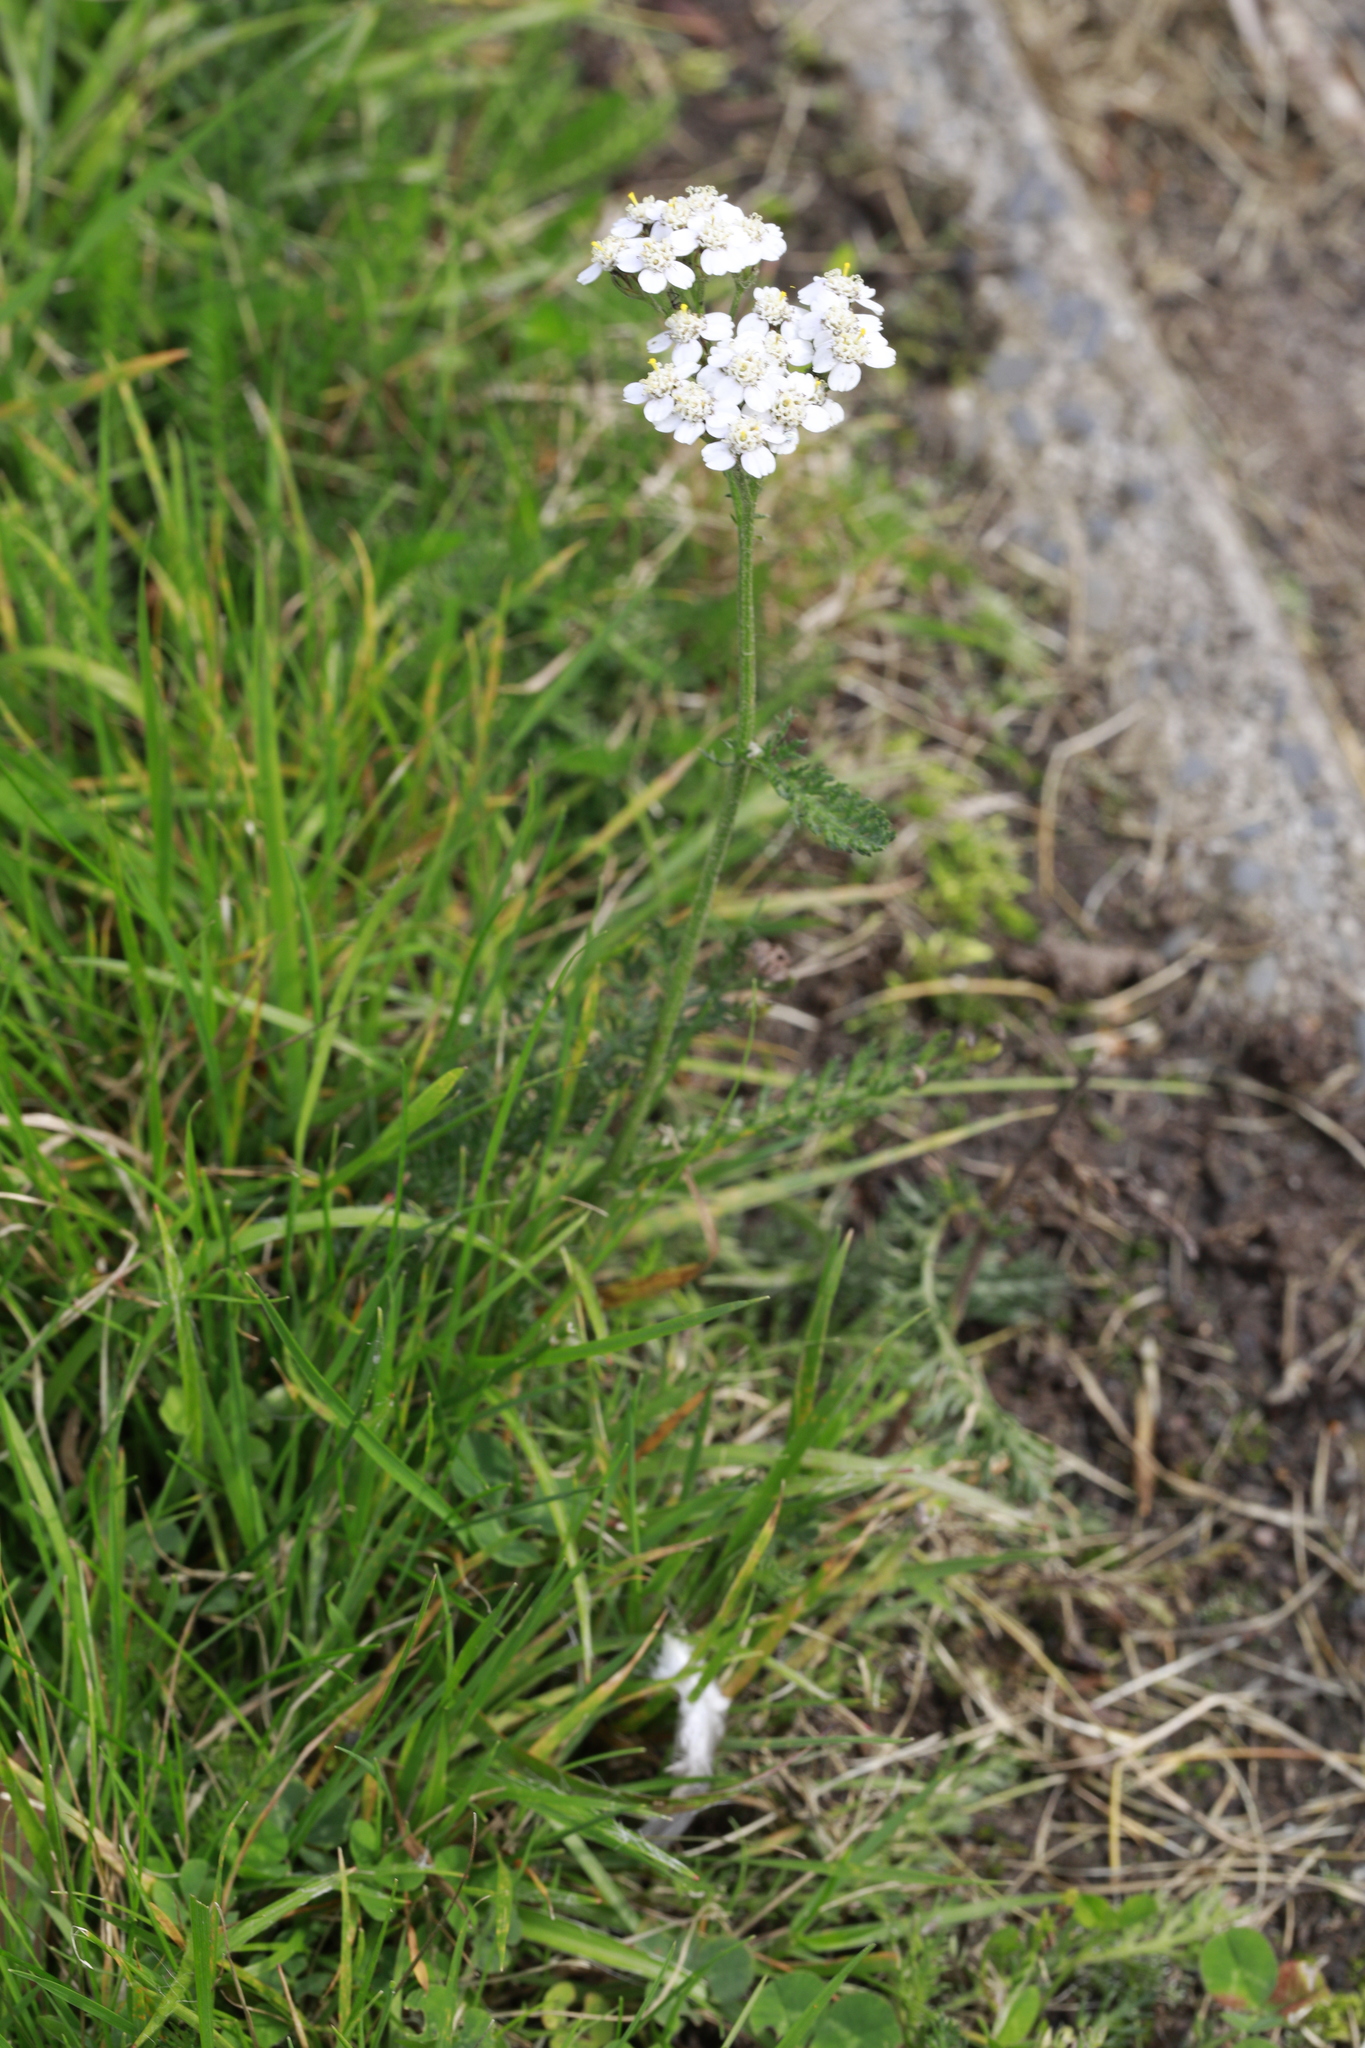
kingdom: Plantae
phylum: Tracheophyta
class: Magnoliopsida
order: Asterales
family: Asteraceae
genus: Achillea
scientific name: Achillea millefolium
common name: Yarrow
